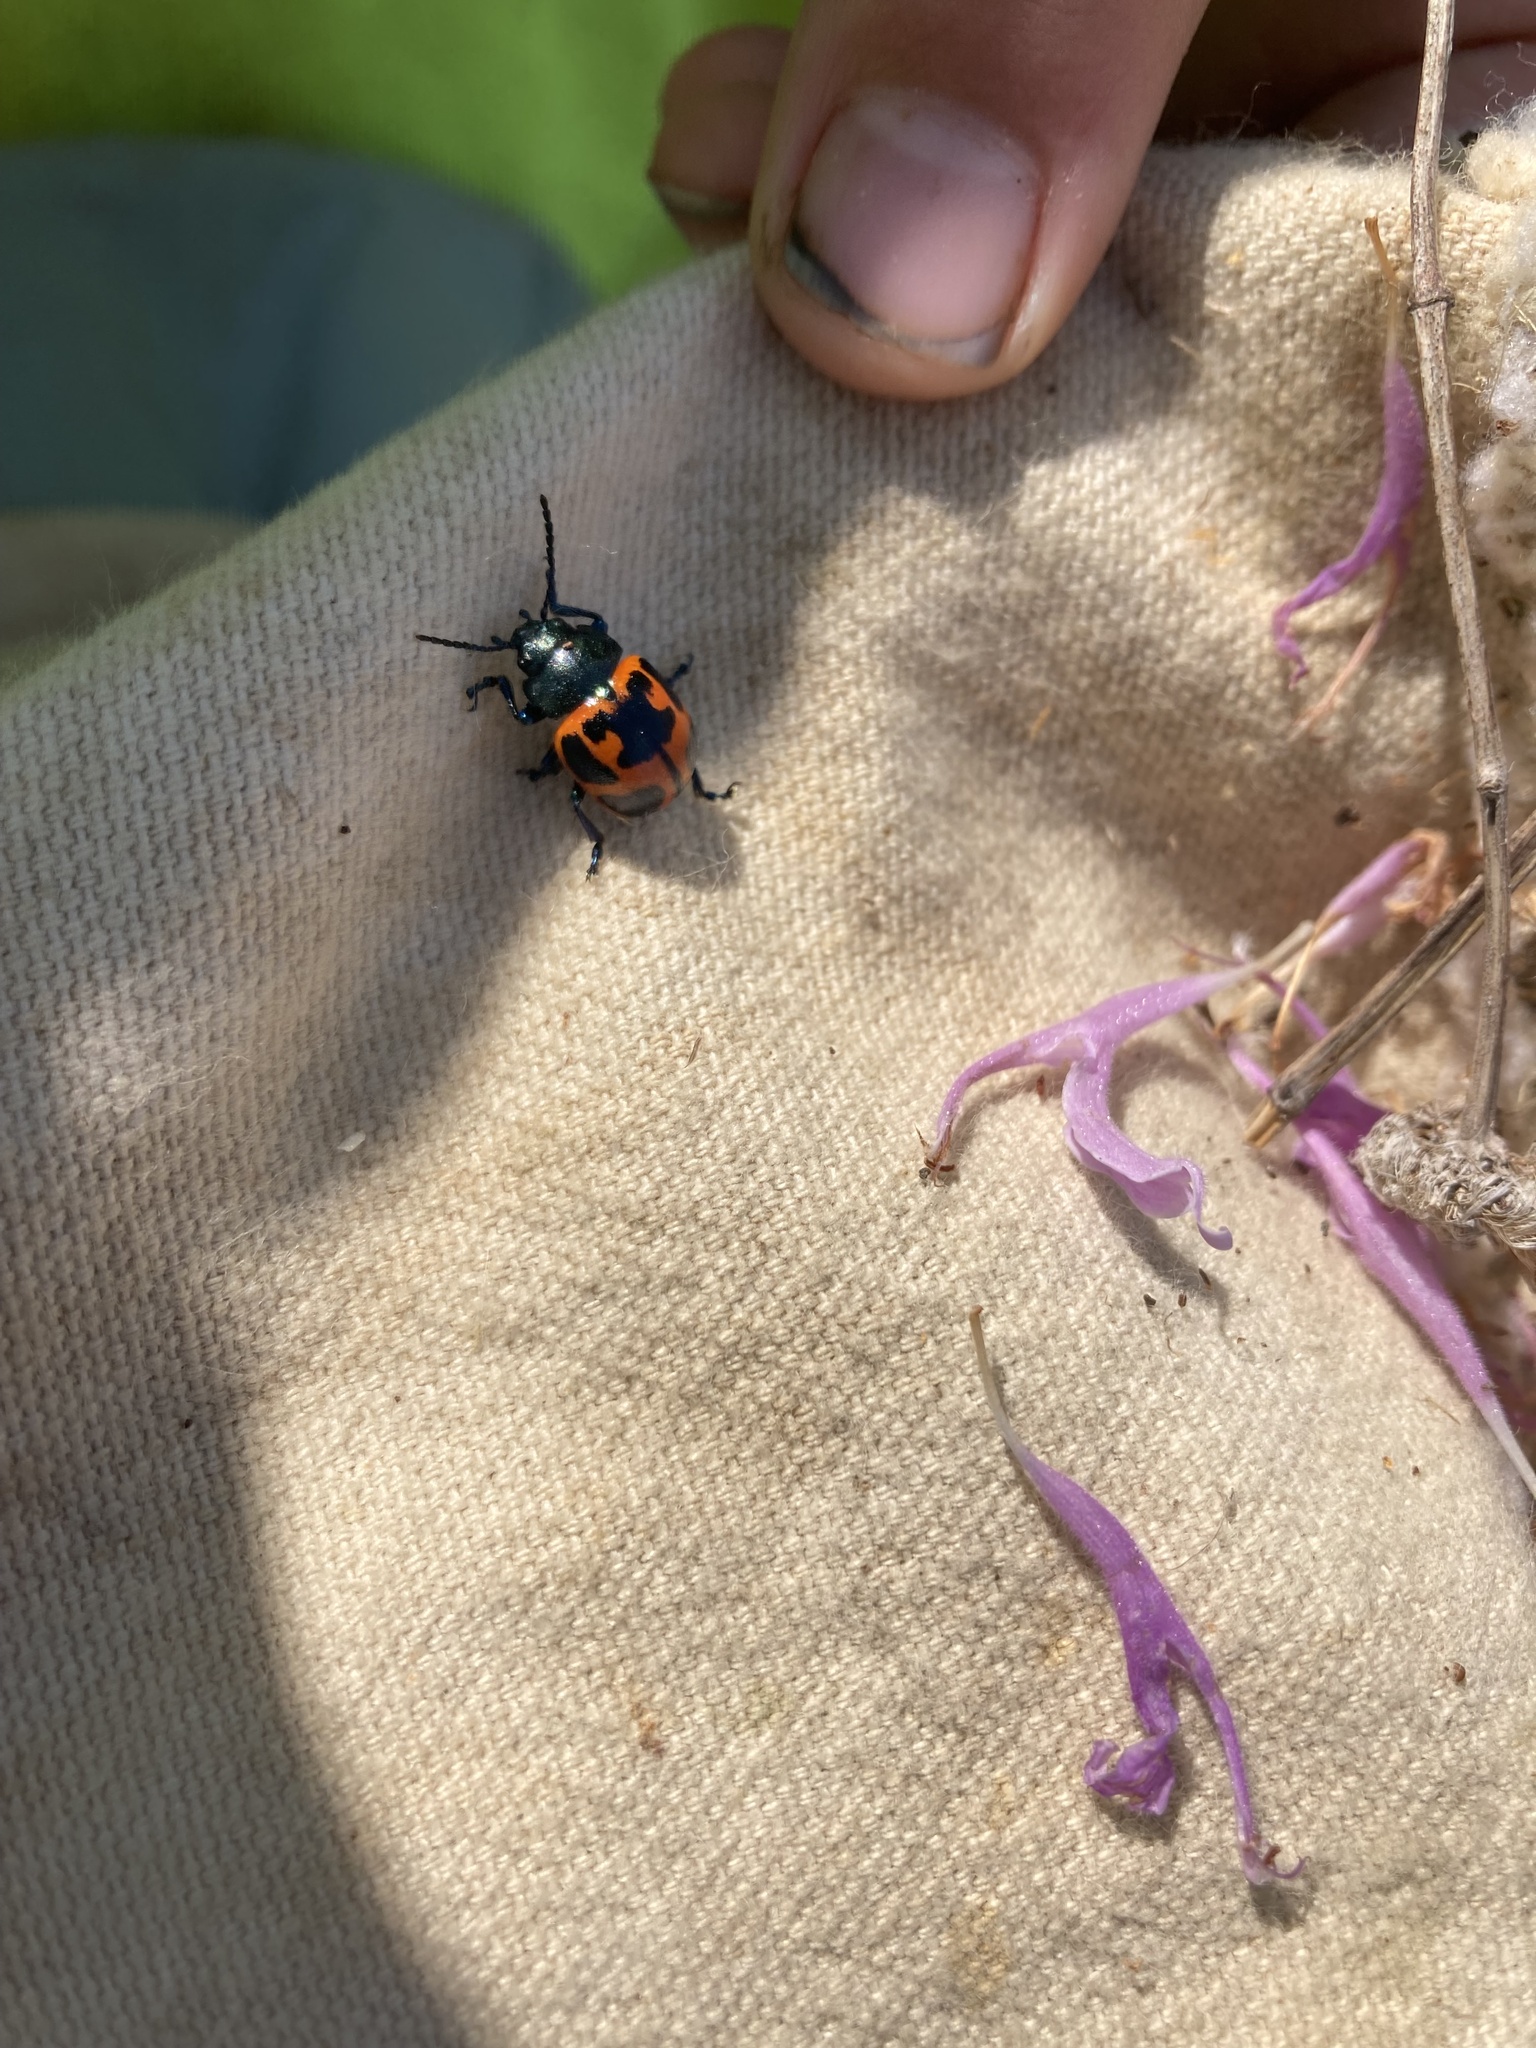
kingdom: Animalia
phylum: Arthropoda
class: Insecta
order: Coleoptera
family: Chrysomelidae
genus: Labidomera
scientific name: Labidomera clivicollis
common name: Swamp milkweed leaf beetle
